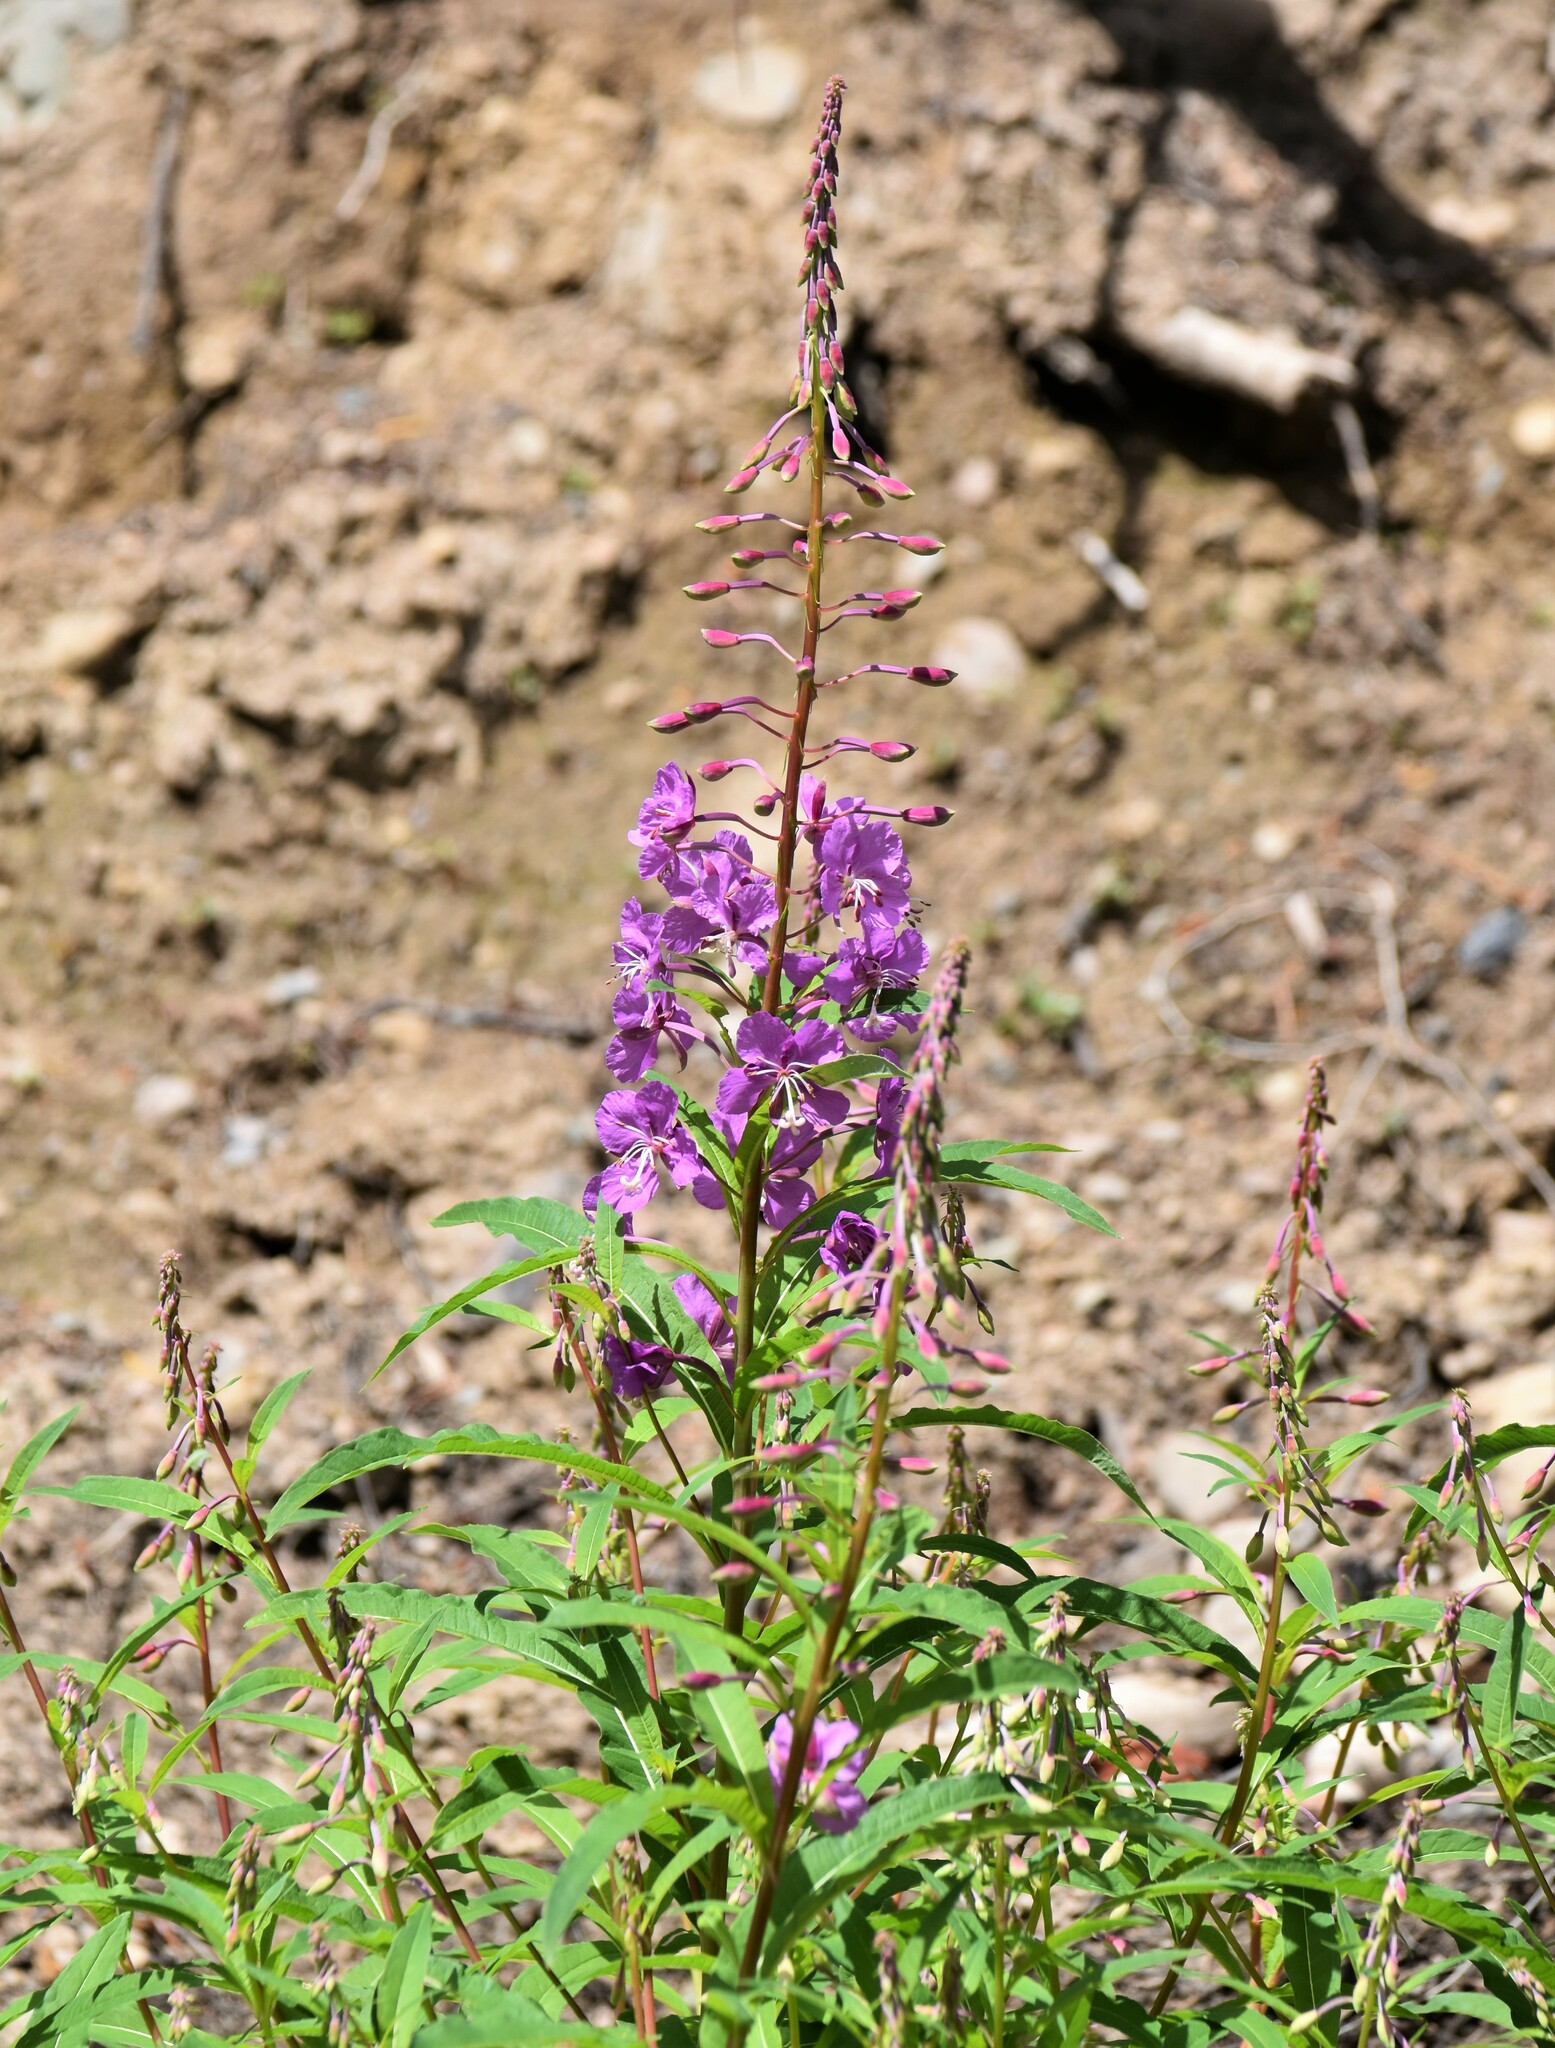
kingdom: Plantae
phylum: Tracheophyta
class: Magnoliopsida
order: Myrtales
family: Onagraceae
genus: Chamaenerion
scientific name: Chamaenerion angustifolium
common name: Fireweed
